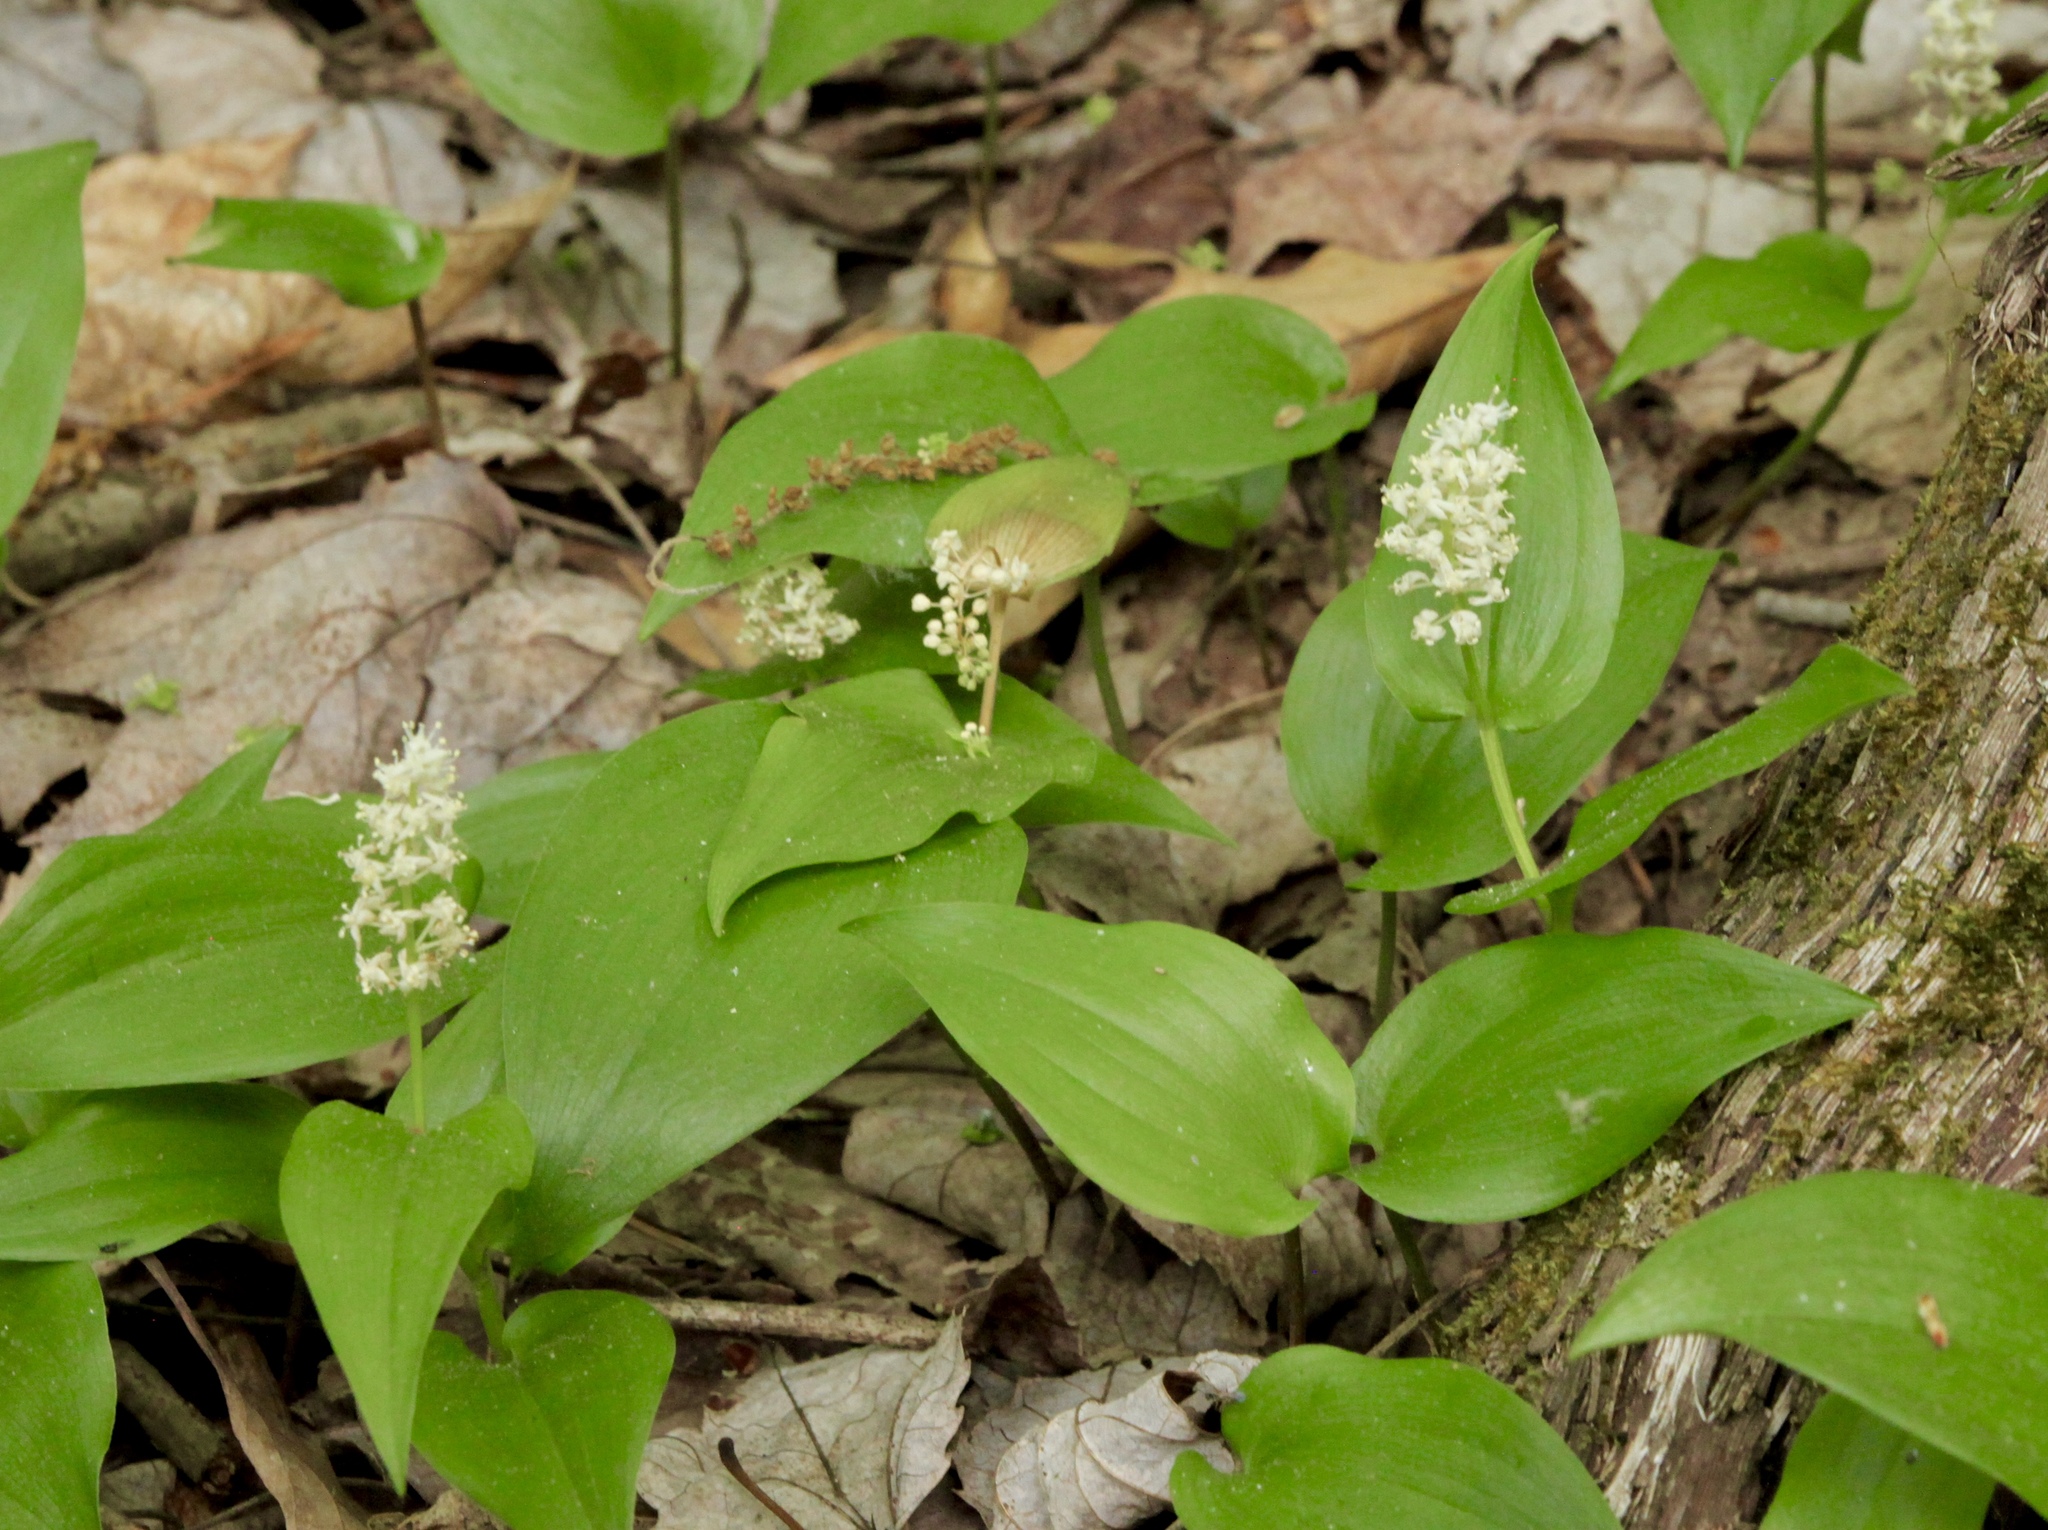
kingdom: Plantae
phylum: Tracheophyta
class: Liliopsida
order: Asparagales
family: Asparagaceae
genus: Maianthemum
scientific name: Maianthemum canadense
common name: False lily-of-the-valley
